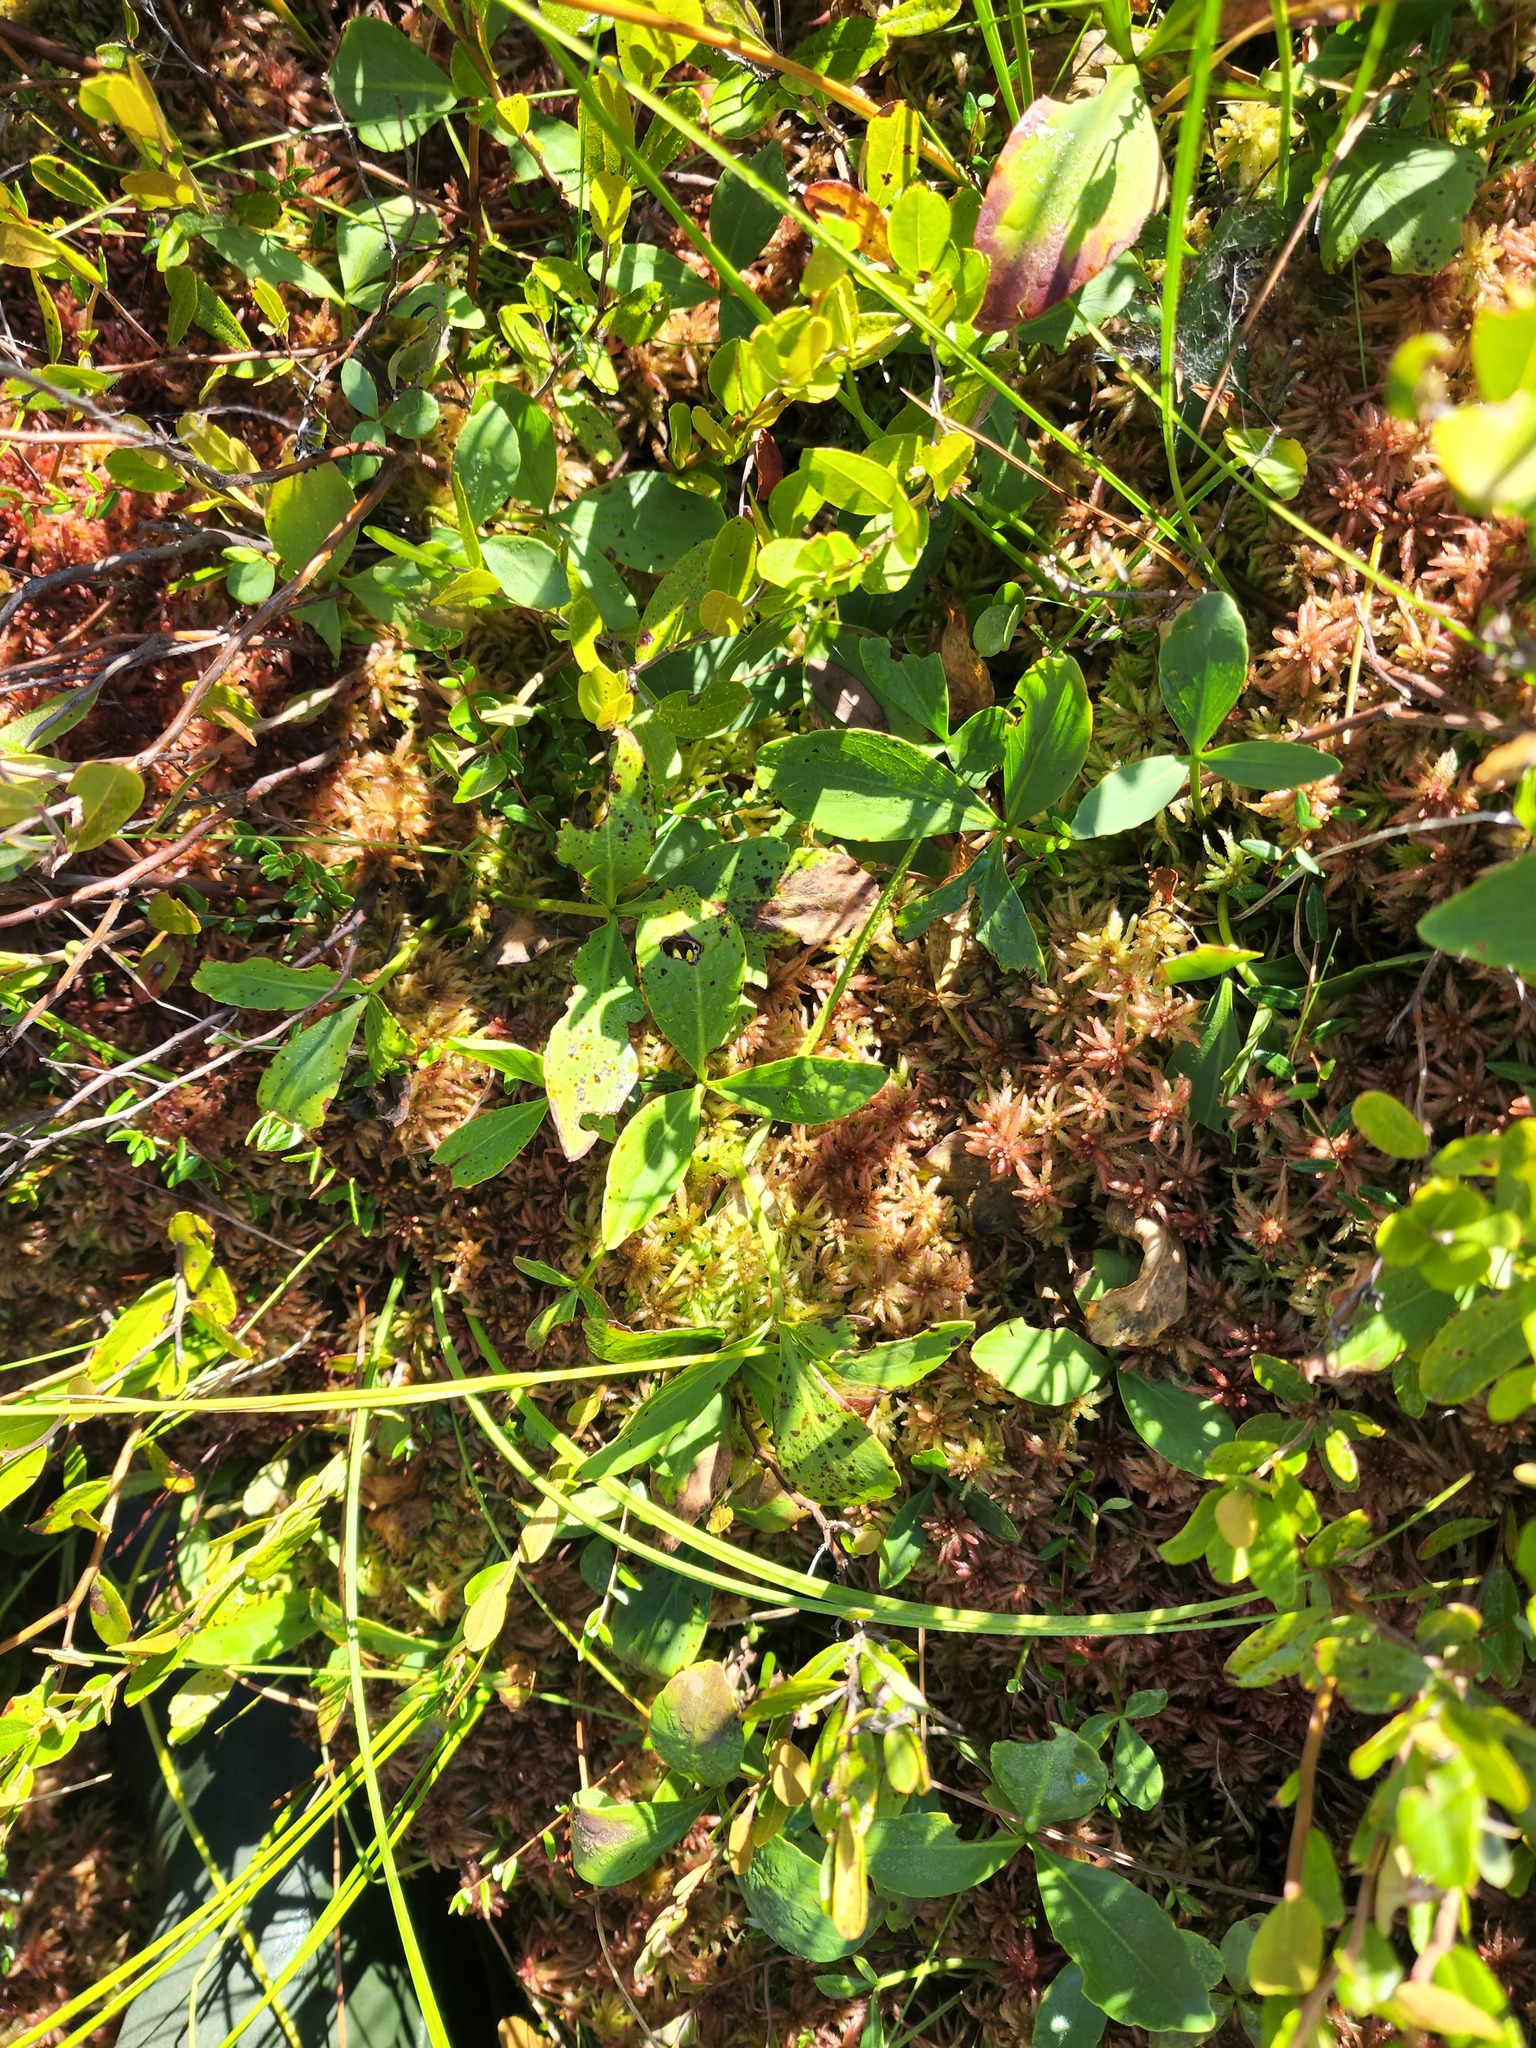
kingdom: Plantae
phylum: Tracheophyta
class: Magnoliopsida
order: Asterales
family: Menyanthaceae
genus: Menyanthes
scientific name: Menyanthes trifoliata
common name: Bogbean
